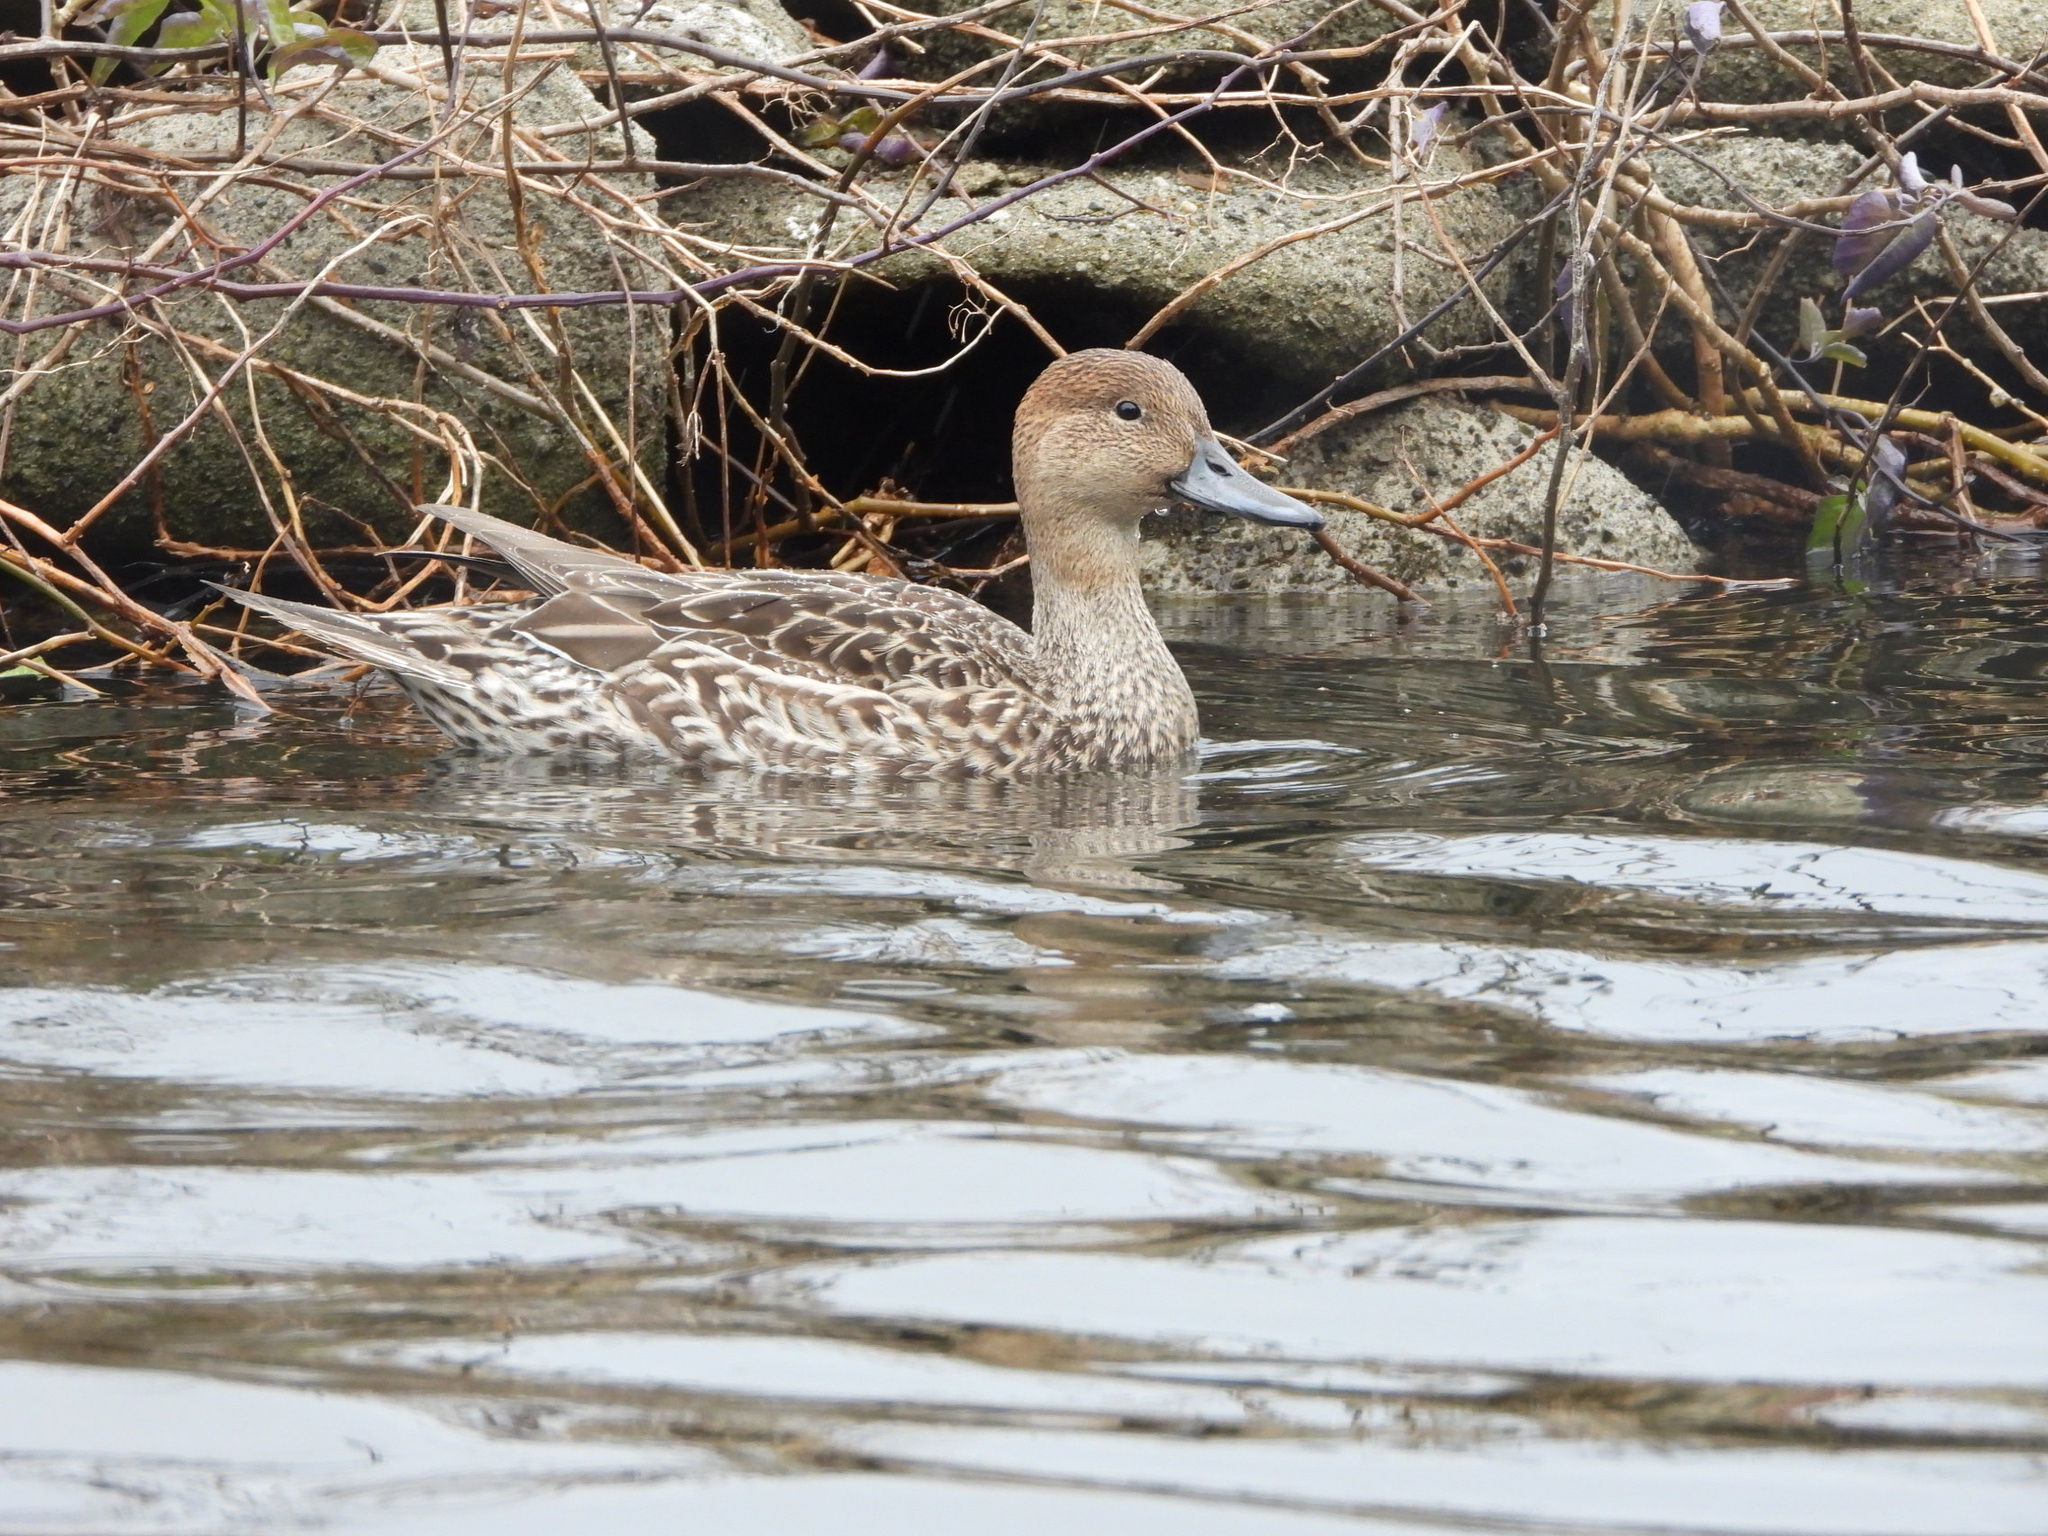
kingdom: Animalia
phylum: Chordata
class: Aves
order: Anseriformes
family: Anatidae
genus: Anas
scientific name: Anas acuta
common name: Northern pintail
